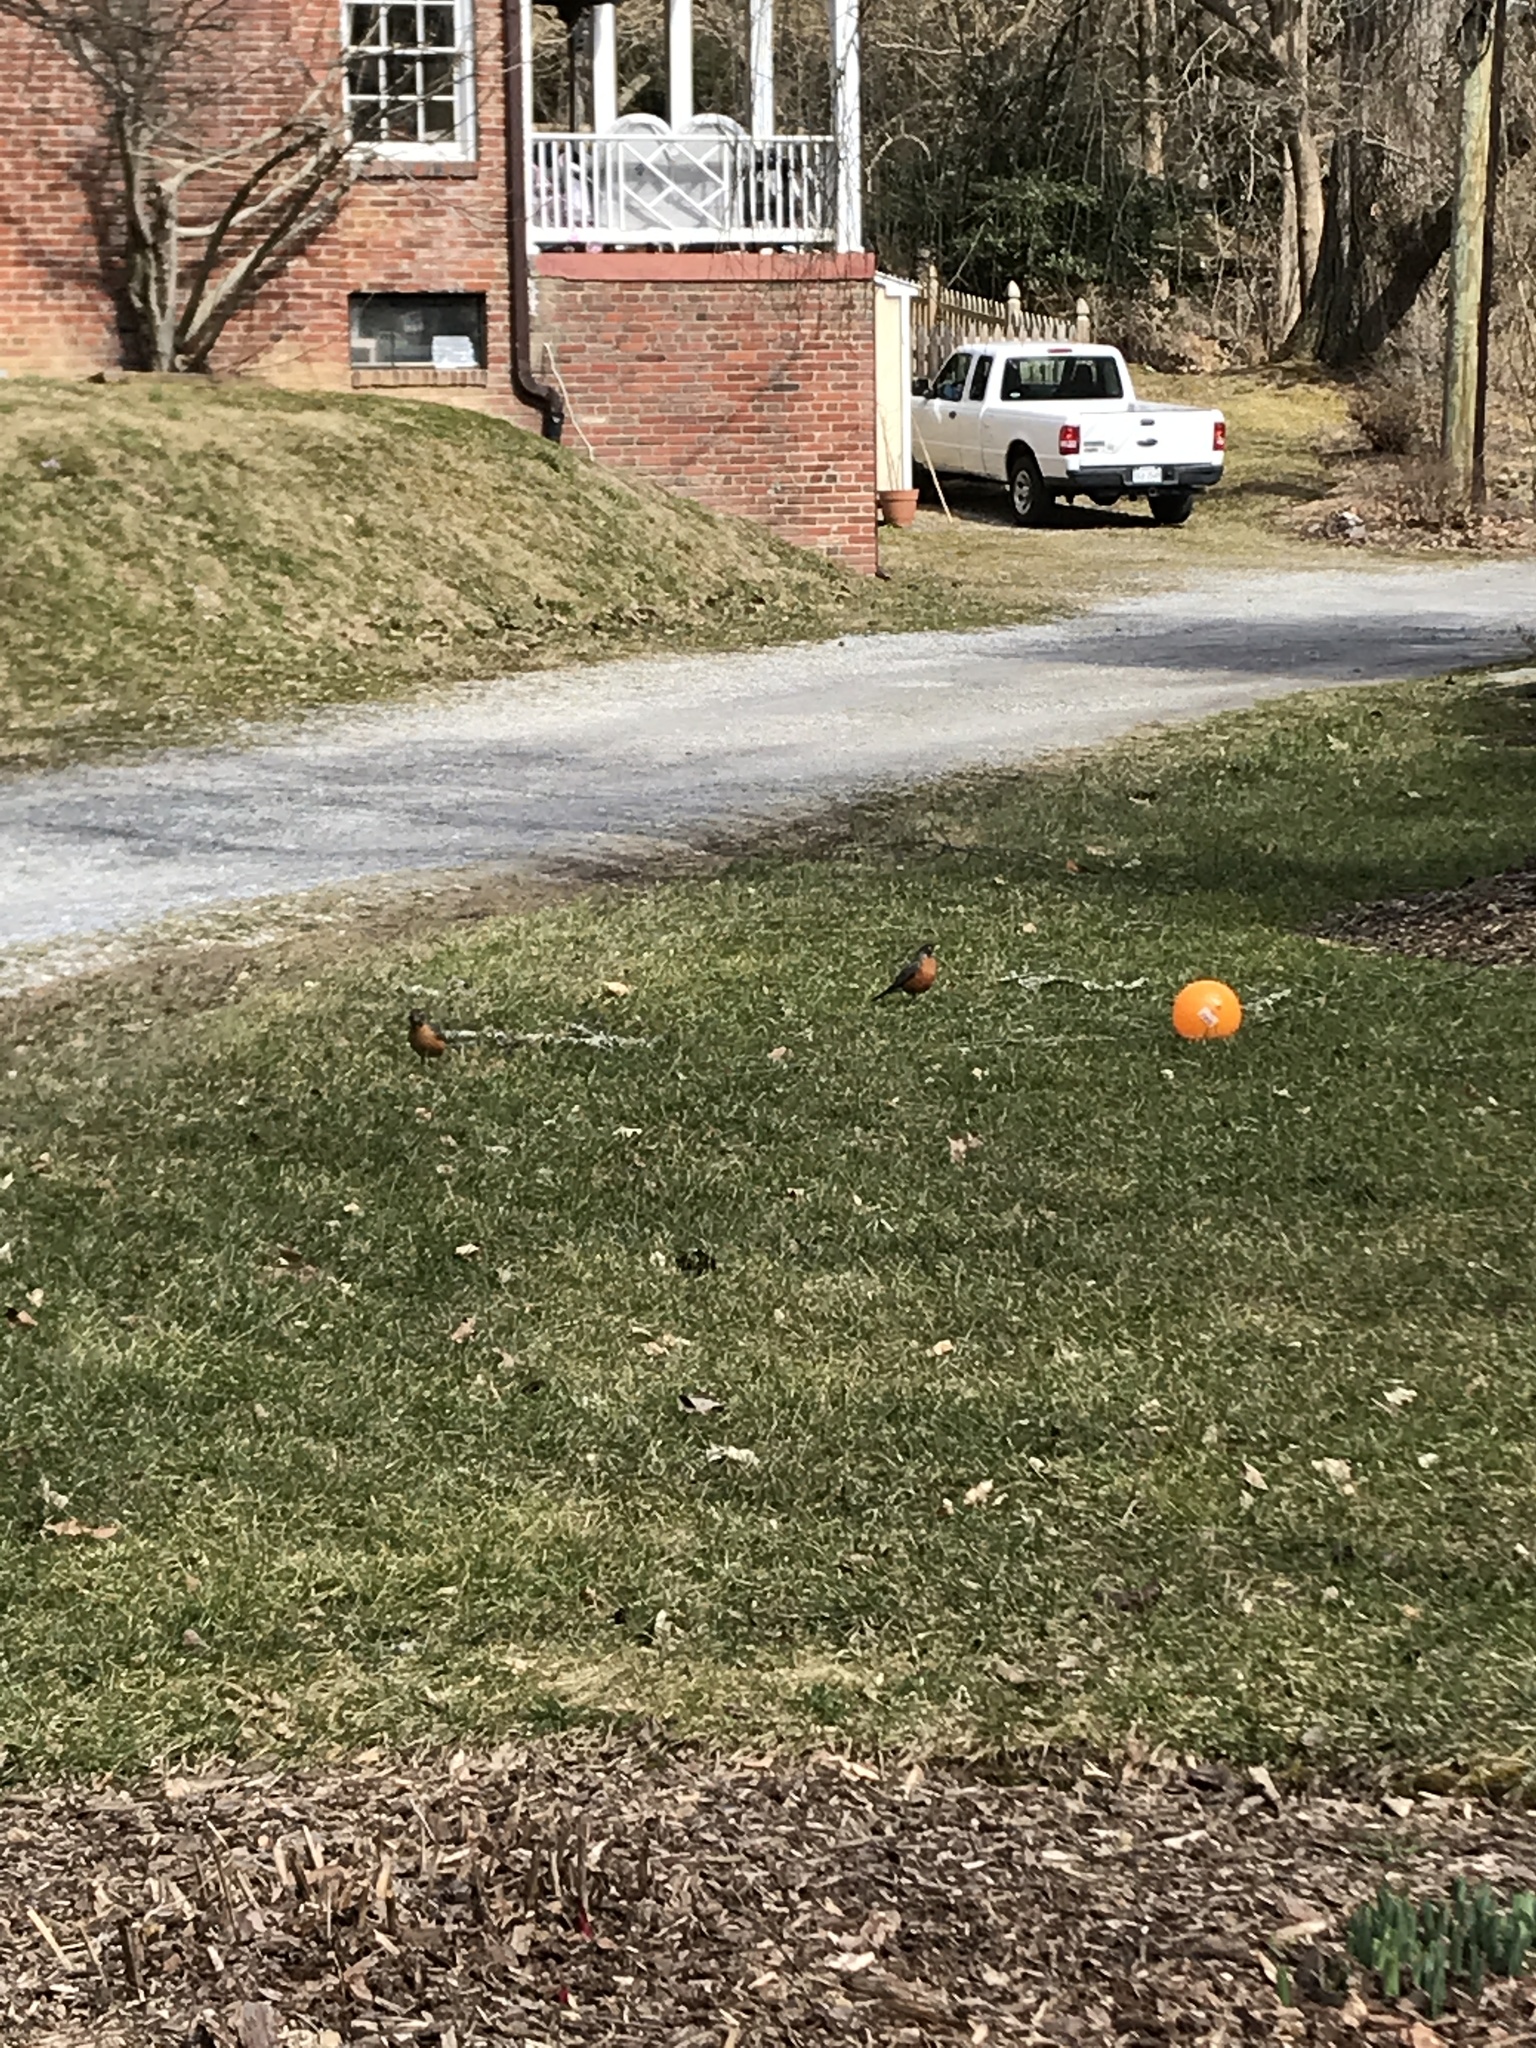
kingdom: Animalia
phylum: Chordata
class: Aves
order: Passeriformes
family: Turdidae
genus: Turdus
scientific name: Turdus migratorius
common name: American robin
